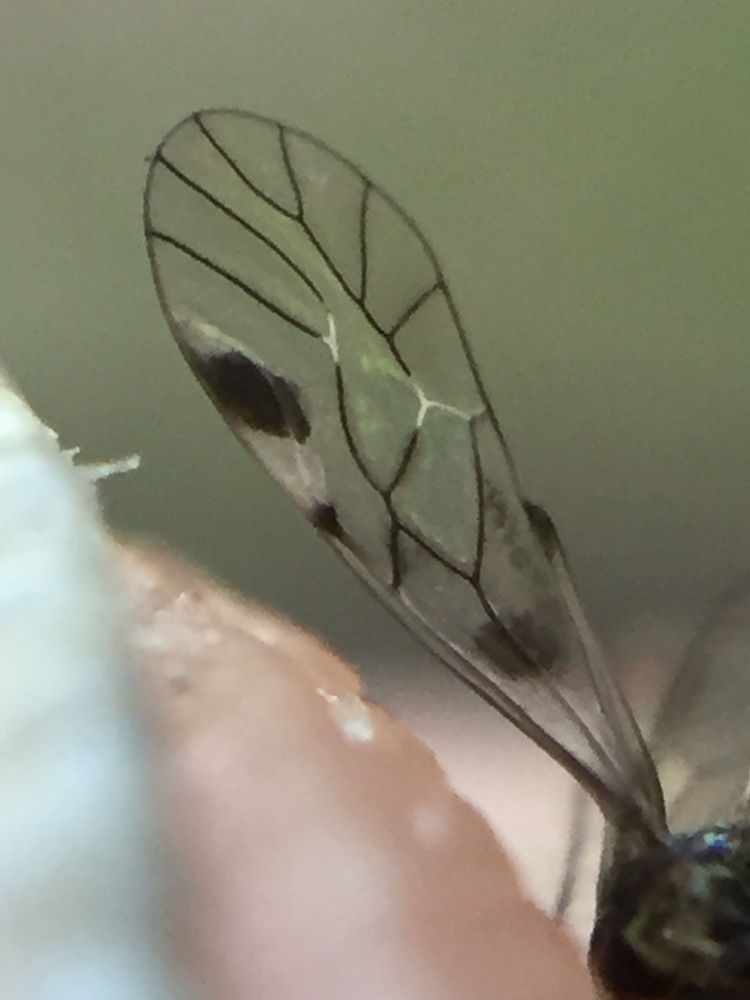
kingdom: Animalia
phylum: Arthropoda
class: Insecta
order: Psocodea
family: Psocidae
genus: Blaste
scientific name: Blaste lignicola
